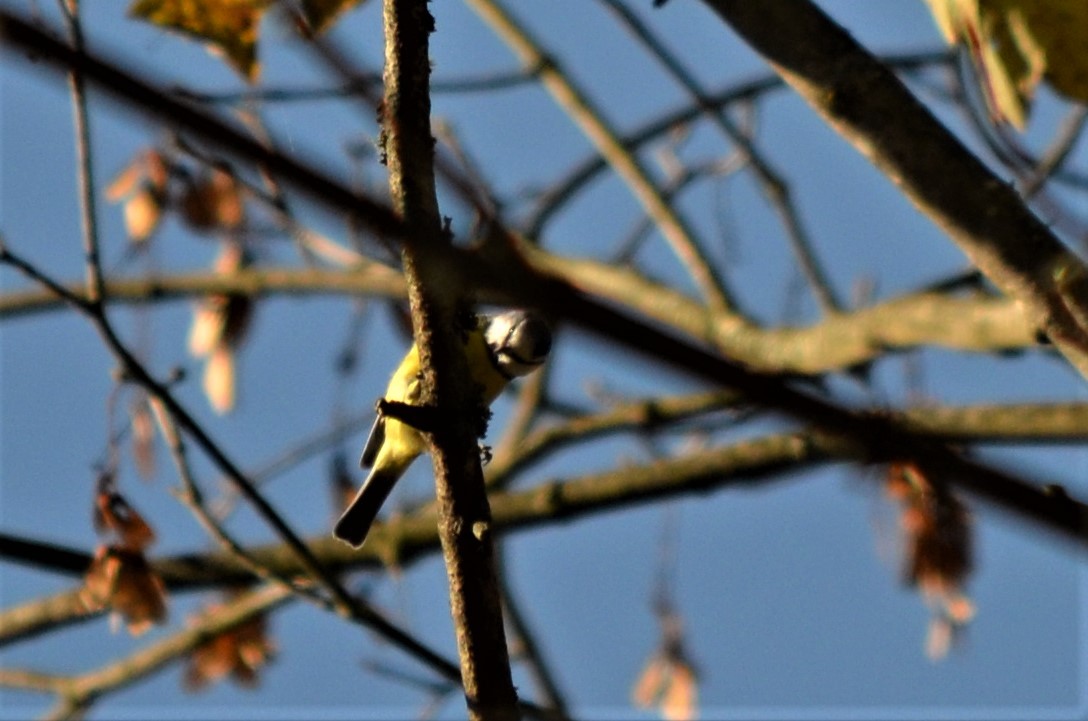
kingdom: Animalia
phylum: Chordata
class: Aves
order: Passeriformes
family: Paridae
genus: Cyanistes
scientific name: Cyanistes caeruleus
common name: Eurasian blue tit
